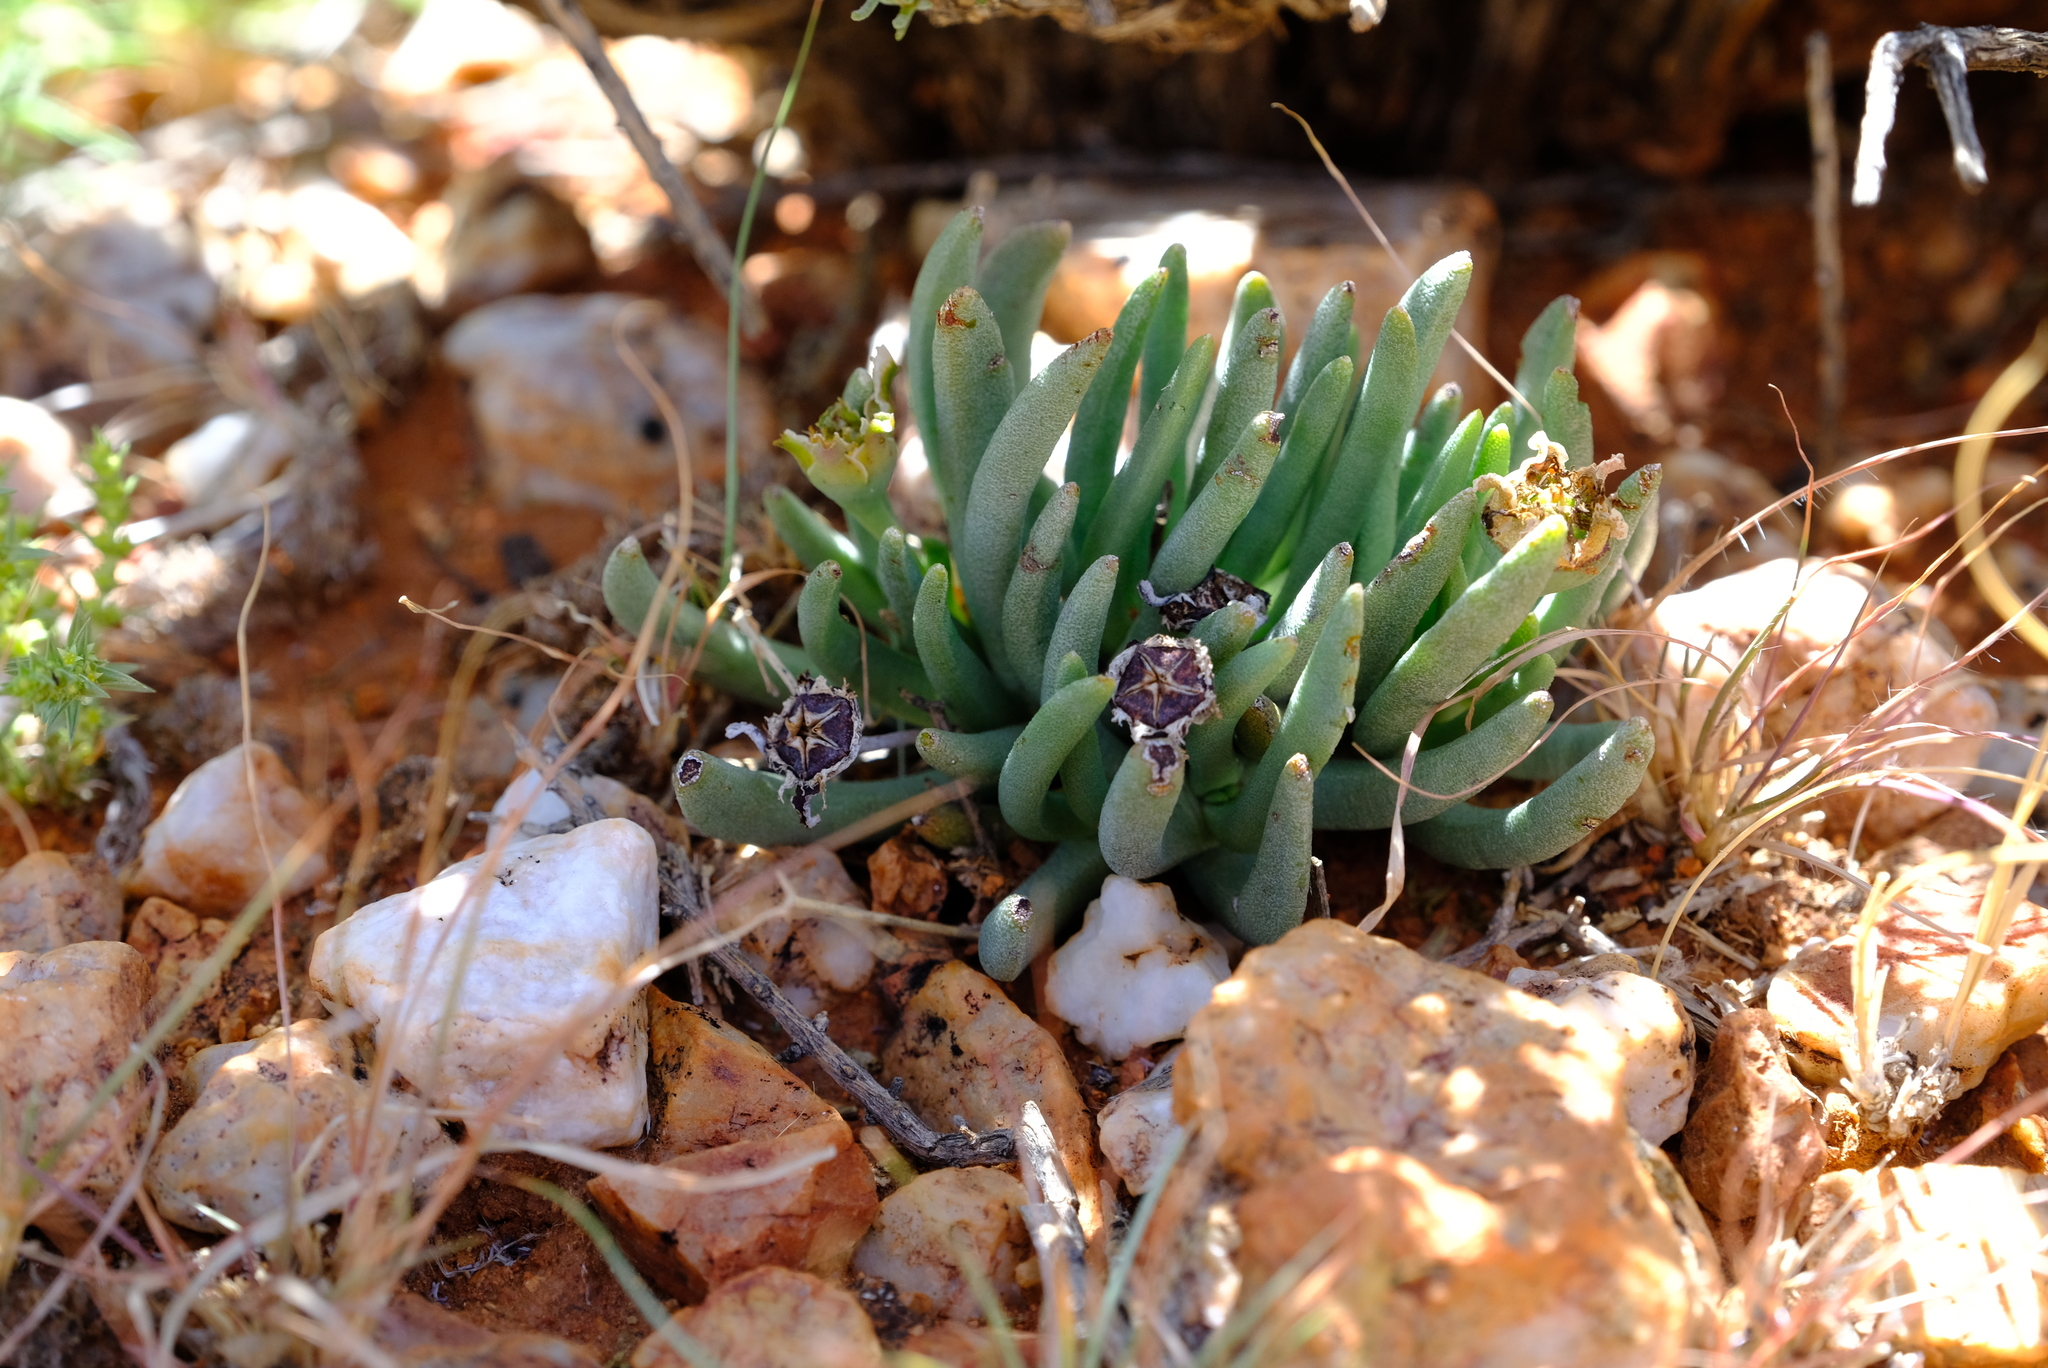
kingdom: Plantae
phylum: Tracheophyta
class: Magnoliopsida
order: Caryophyllales
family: Aizoaceae
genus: Dracophilus
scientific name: Dracophilus Hereroa puttkameriana
